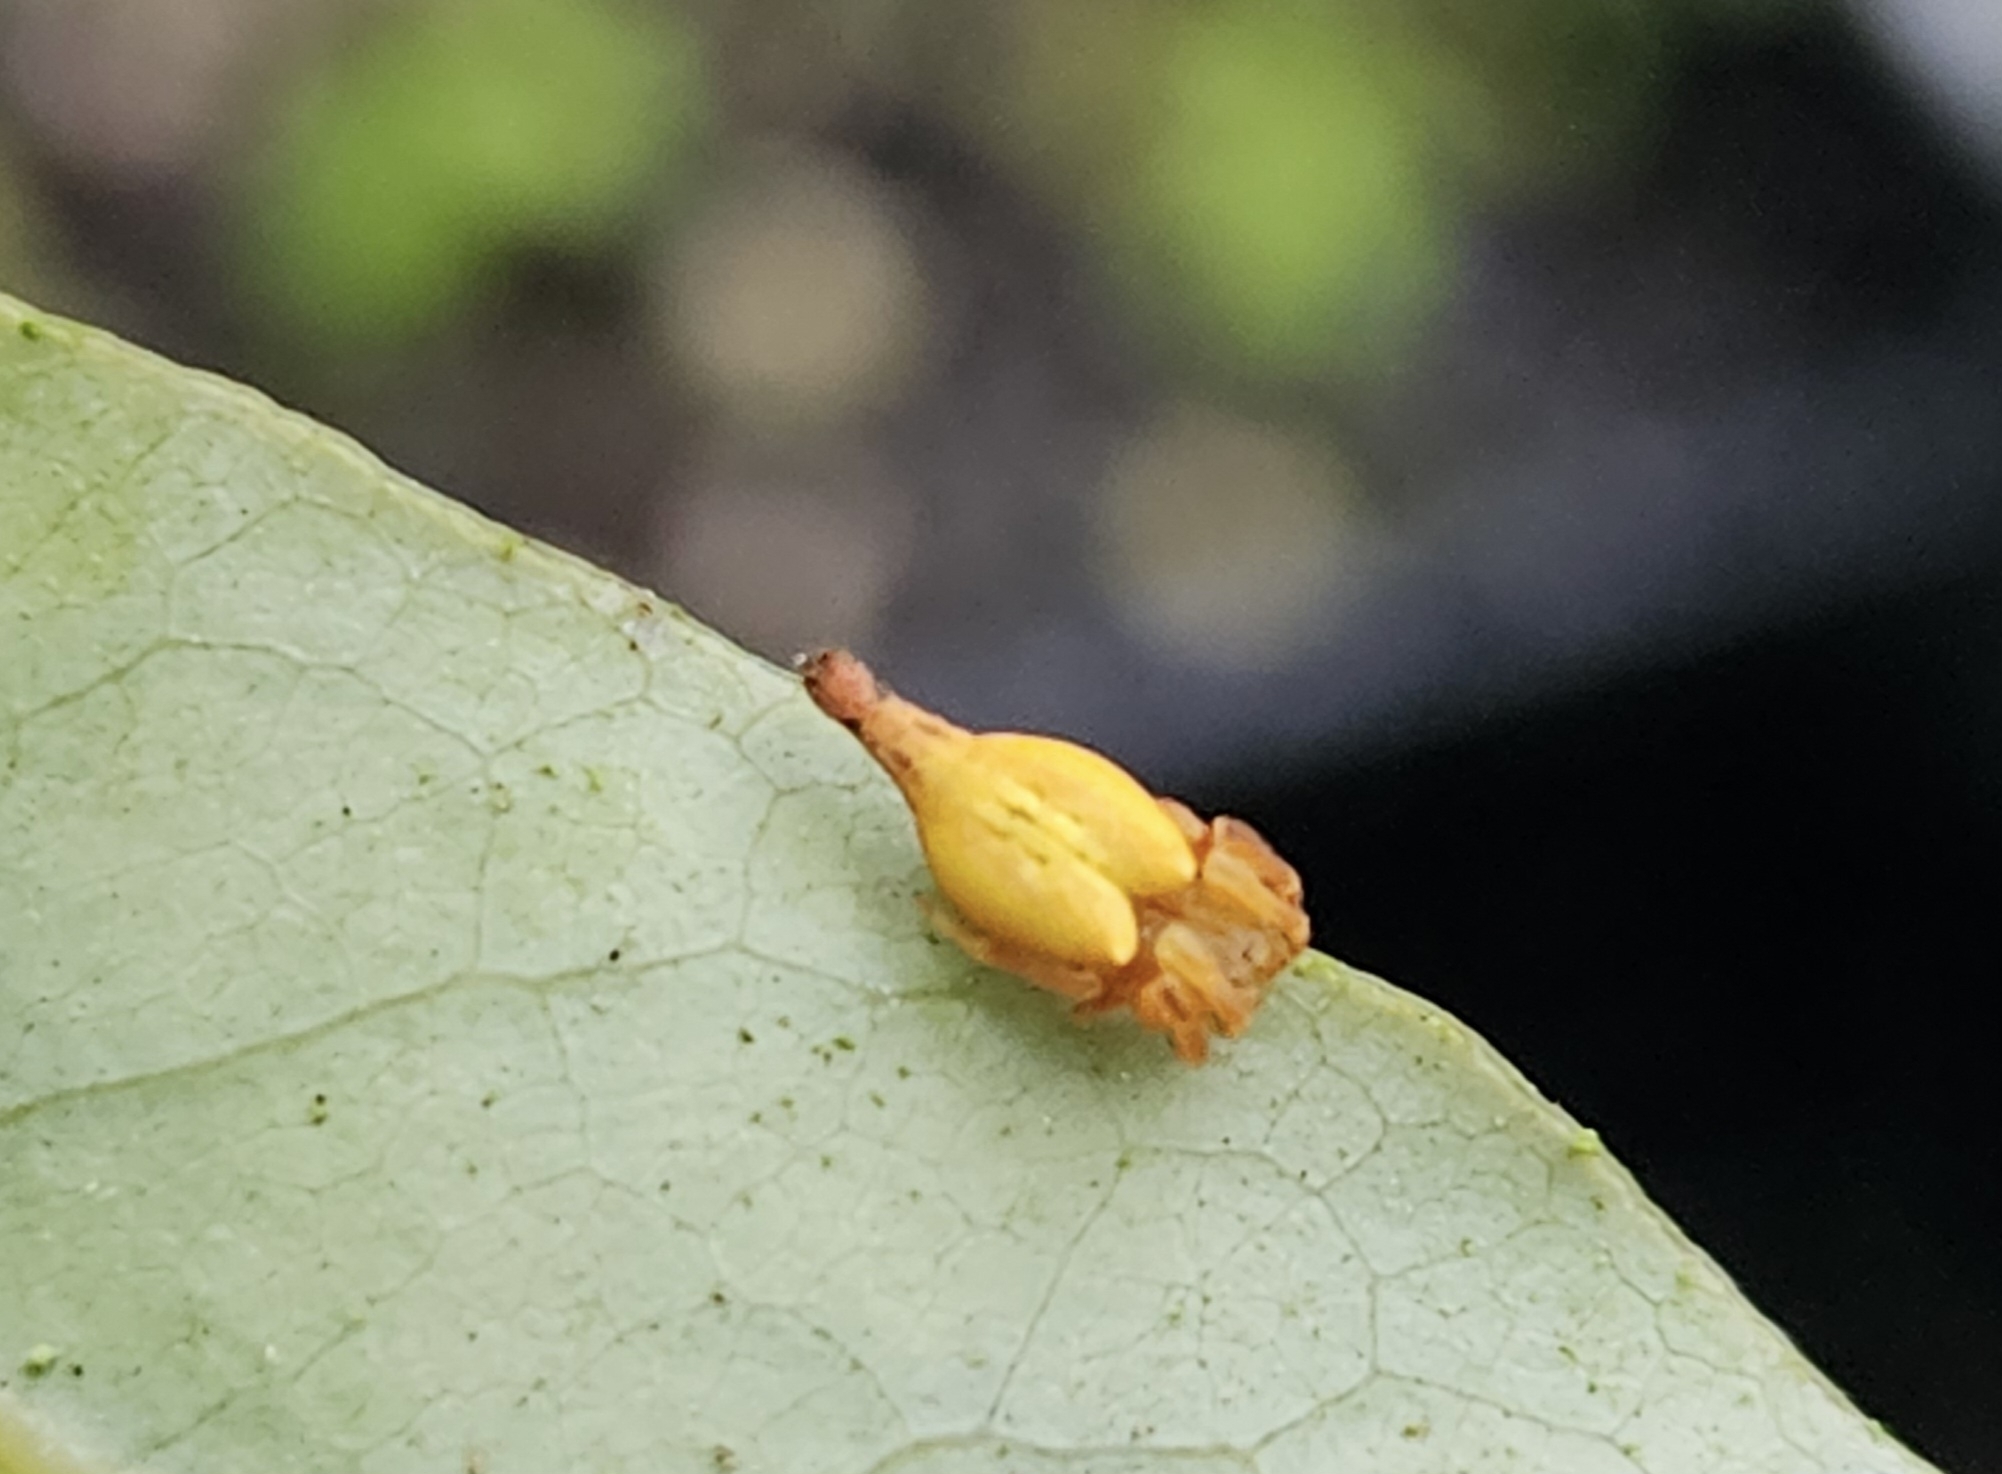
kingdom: Animalia
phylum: Arthropoda
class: Arachnida
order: Araneae
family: Araneidae
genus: Arachnura
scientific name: Arachnura feredayi
